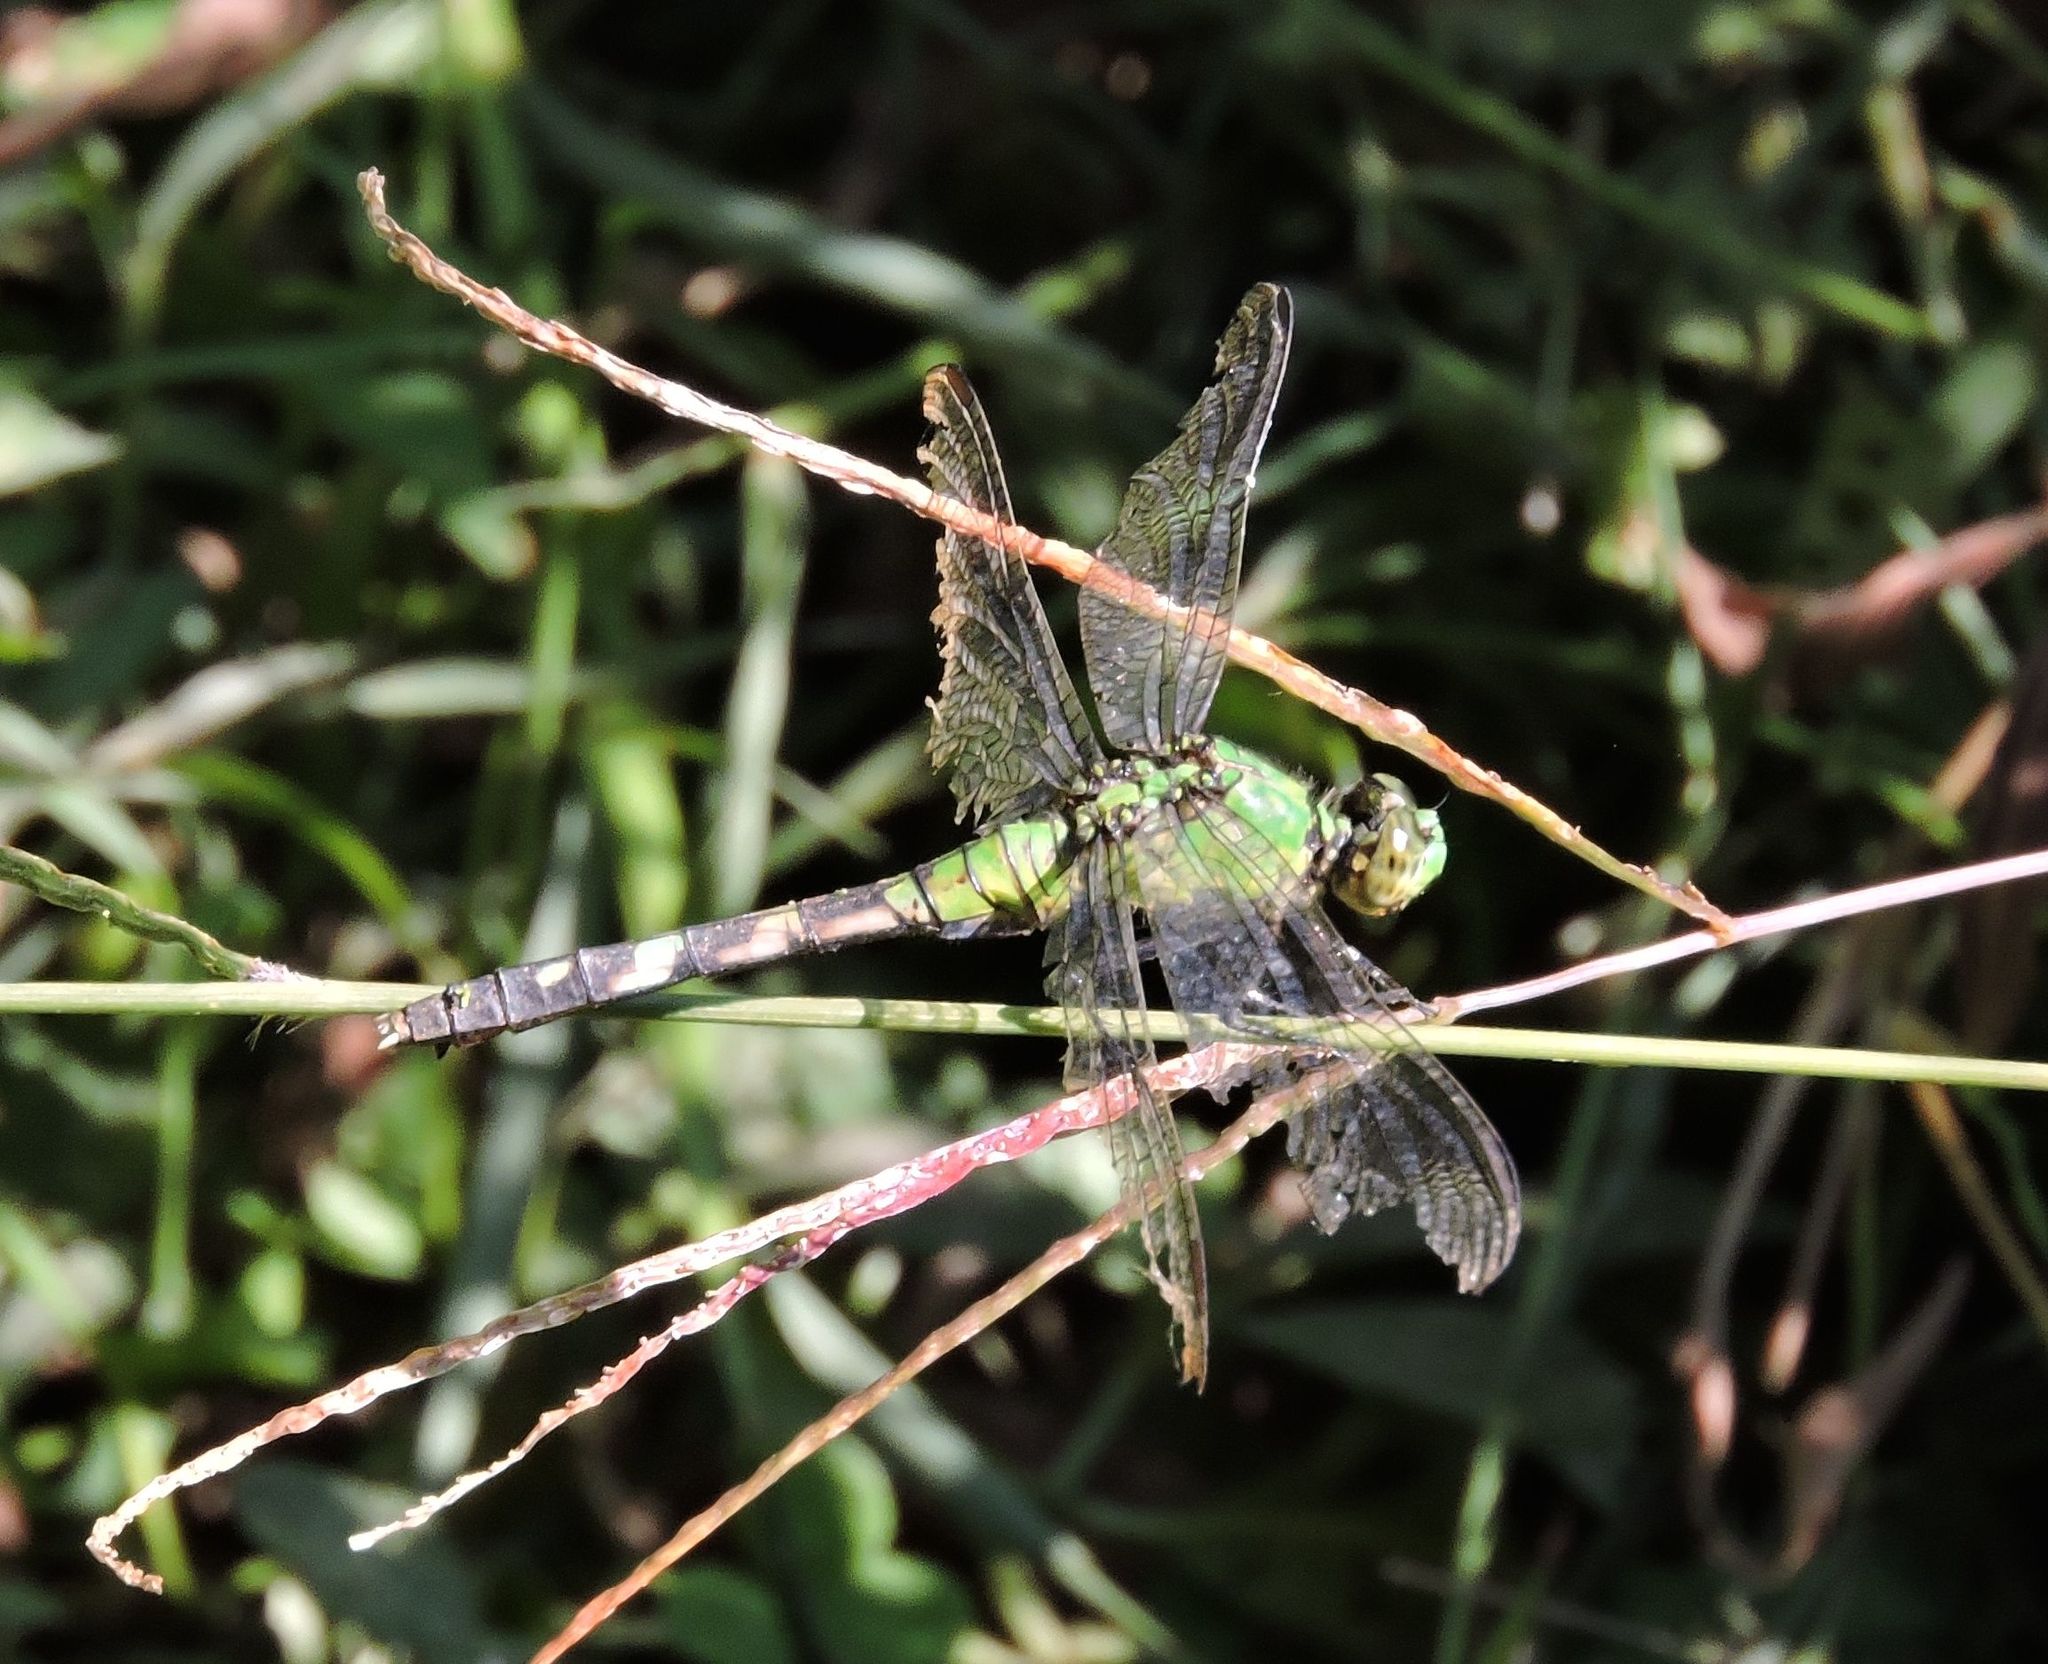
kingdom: Animalia
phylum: Arthropoda
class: Insecta
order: Odonata
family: Libellulidae
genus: Erythemis
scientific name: Erythemis simplicicollis
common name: Eastern pondhawk
